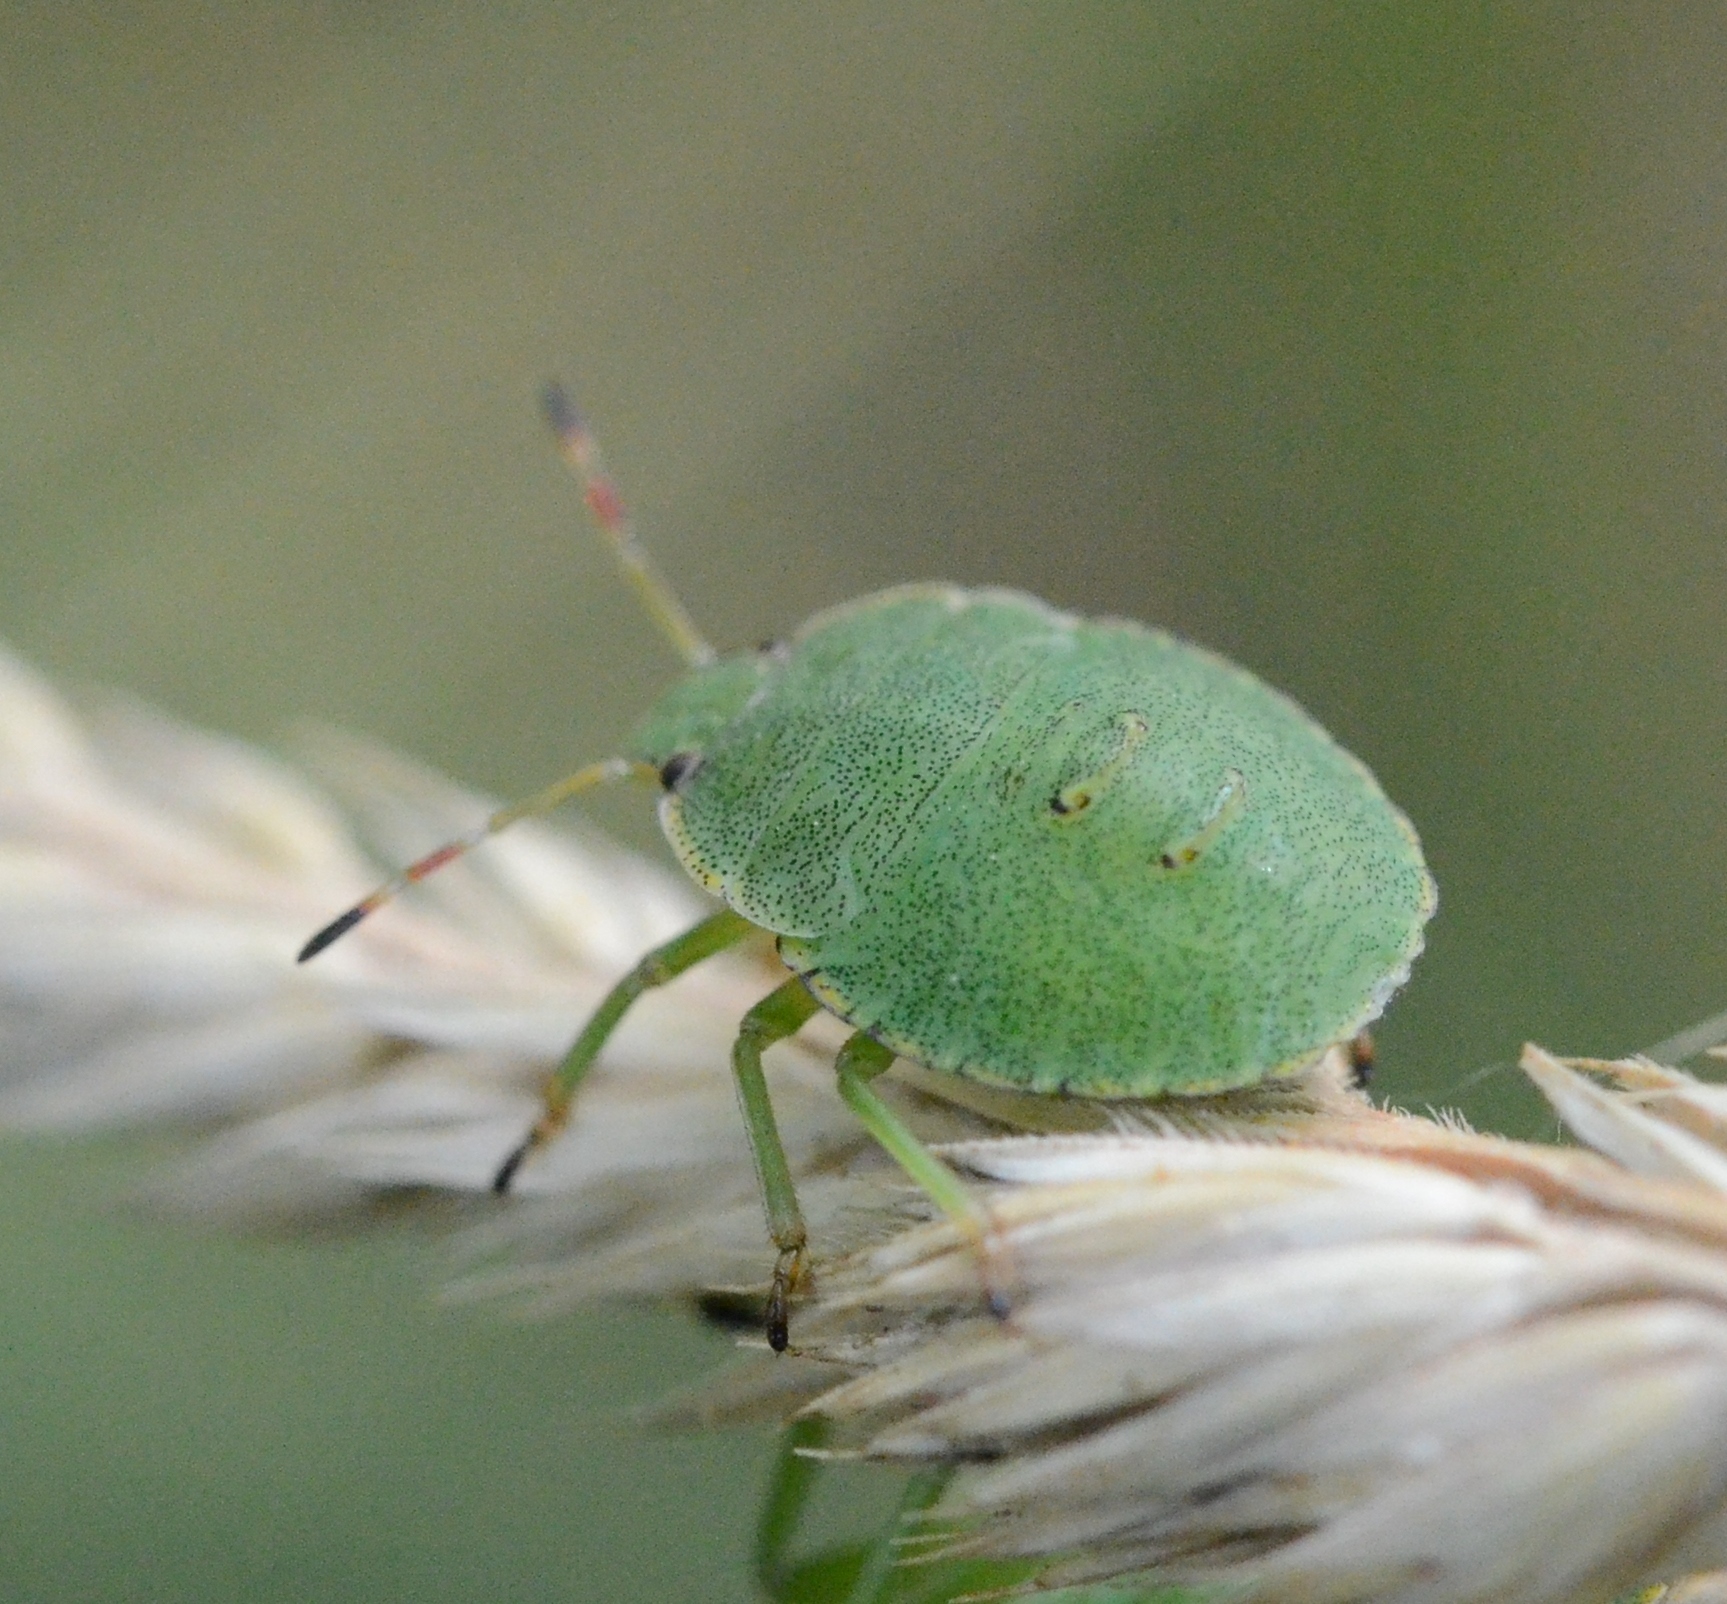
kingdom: Animalia
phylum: Arthropoda
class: Insecta
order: Hemiptera
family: Pentatomidae
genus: Palomena
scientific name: Palomena prasina
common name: Green shieldbug
